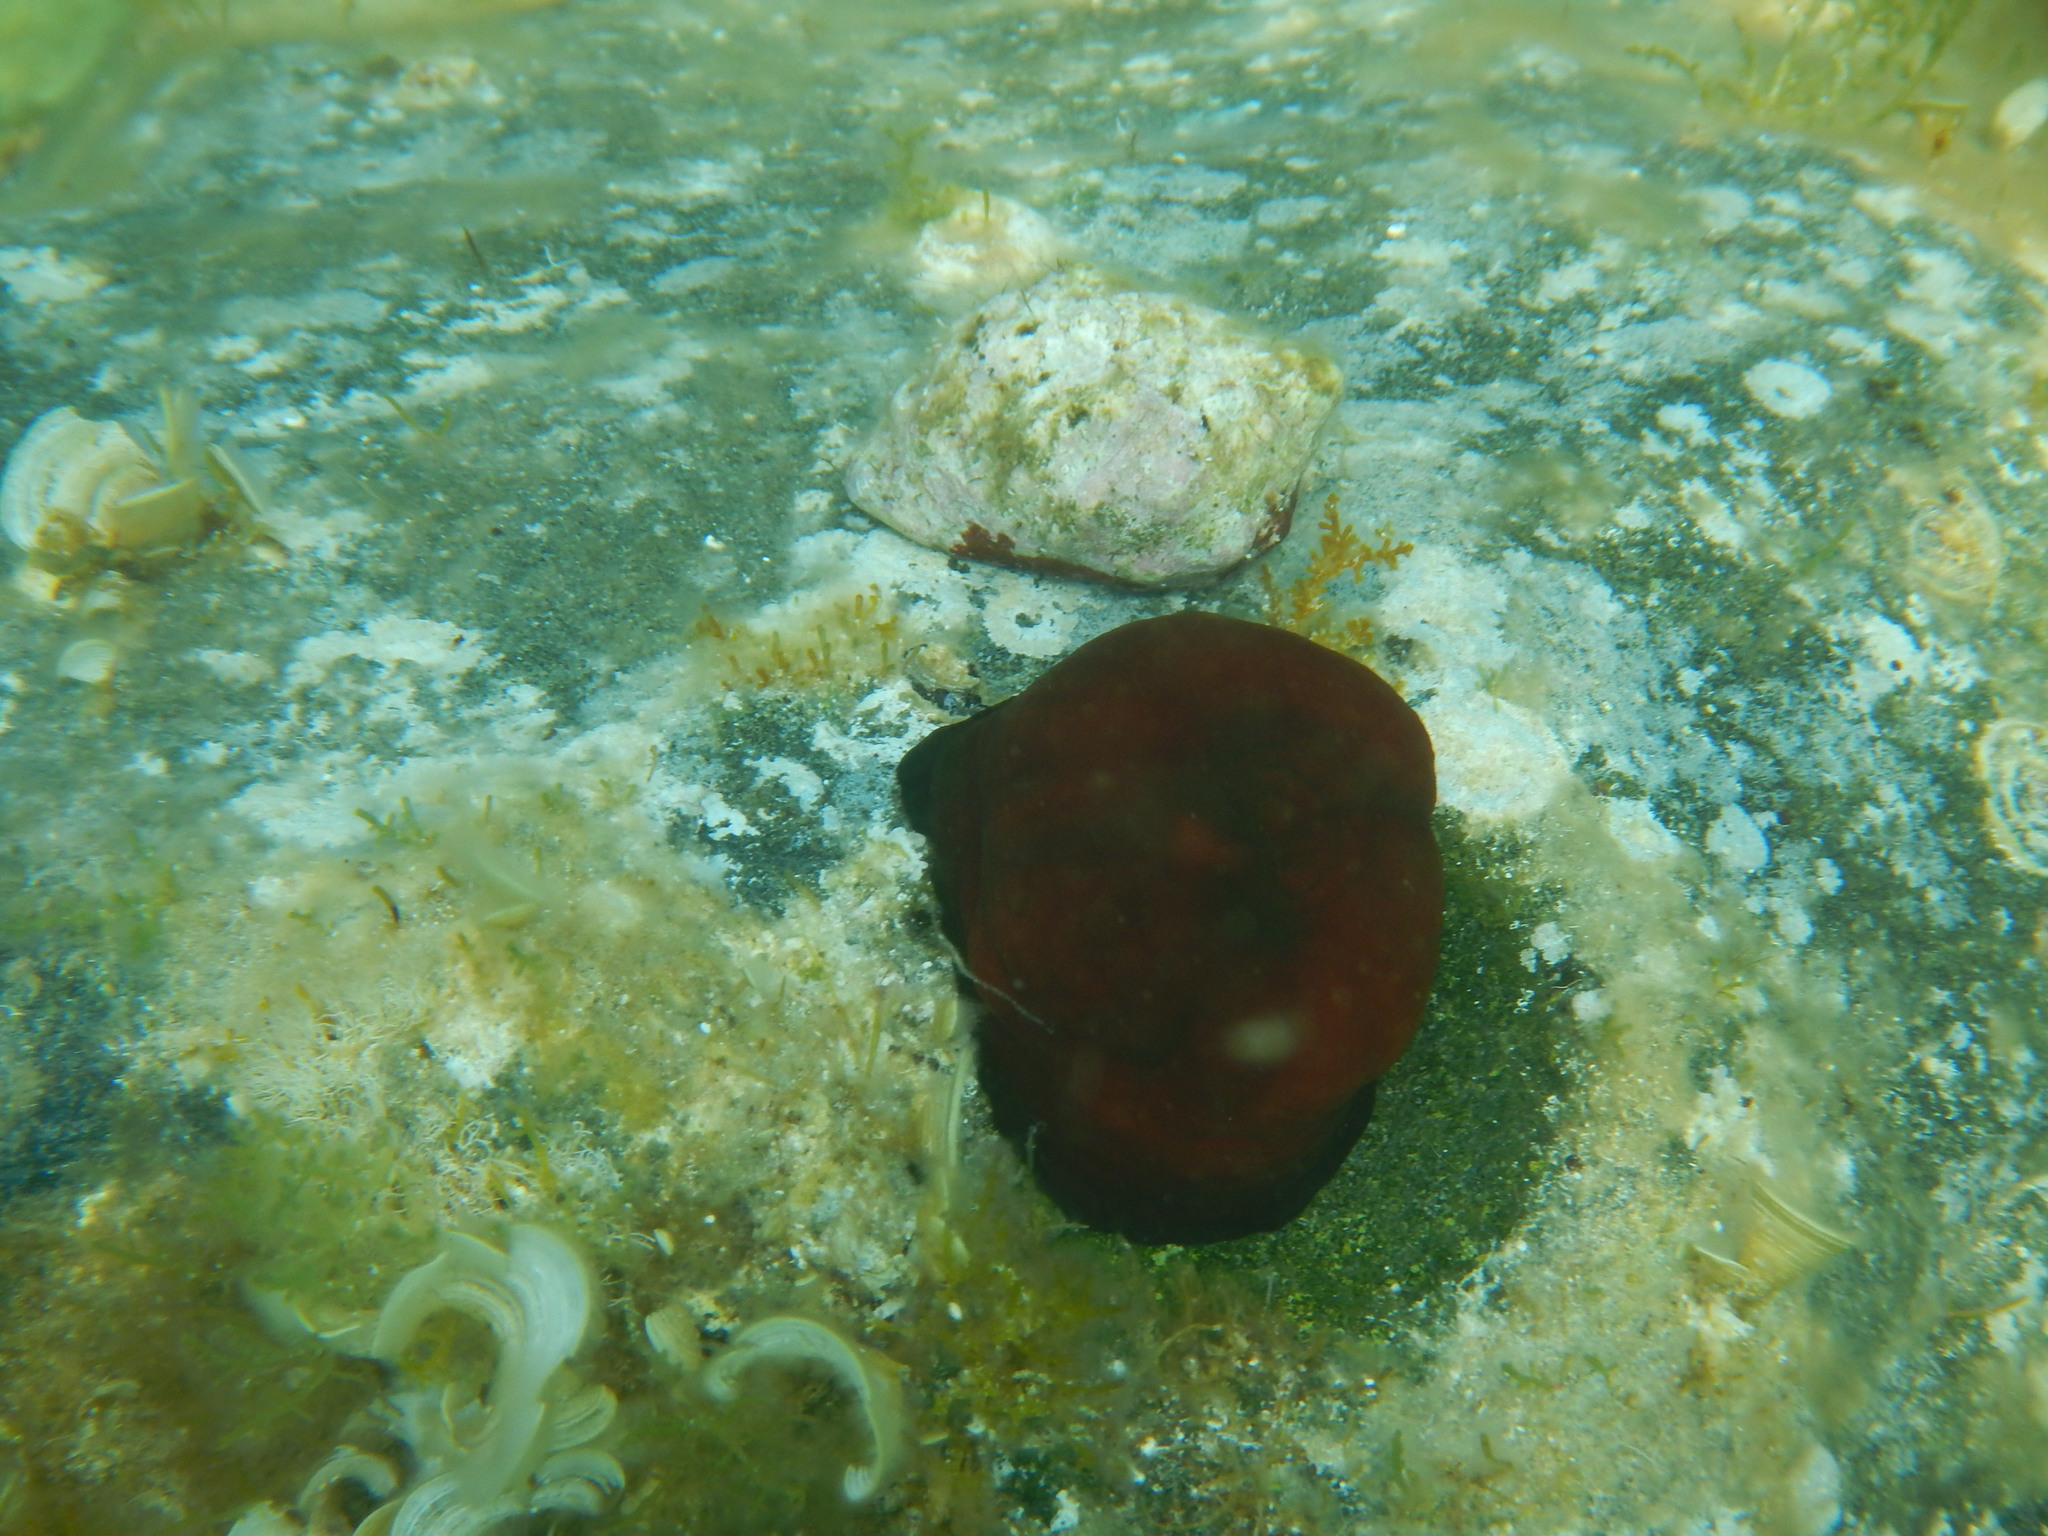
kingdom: Animalia
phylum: Cnidaria
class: Anthozoa
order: Actiniaria
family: Actiniidae
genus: Actinia
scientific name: Actinia mediterranea
